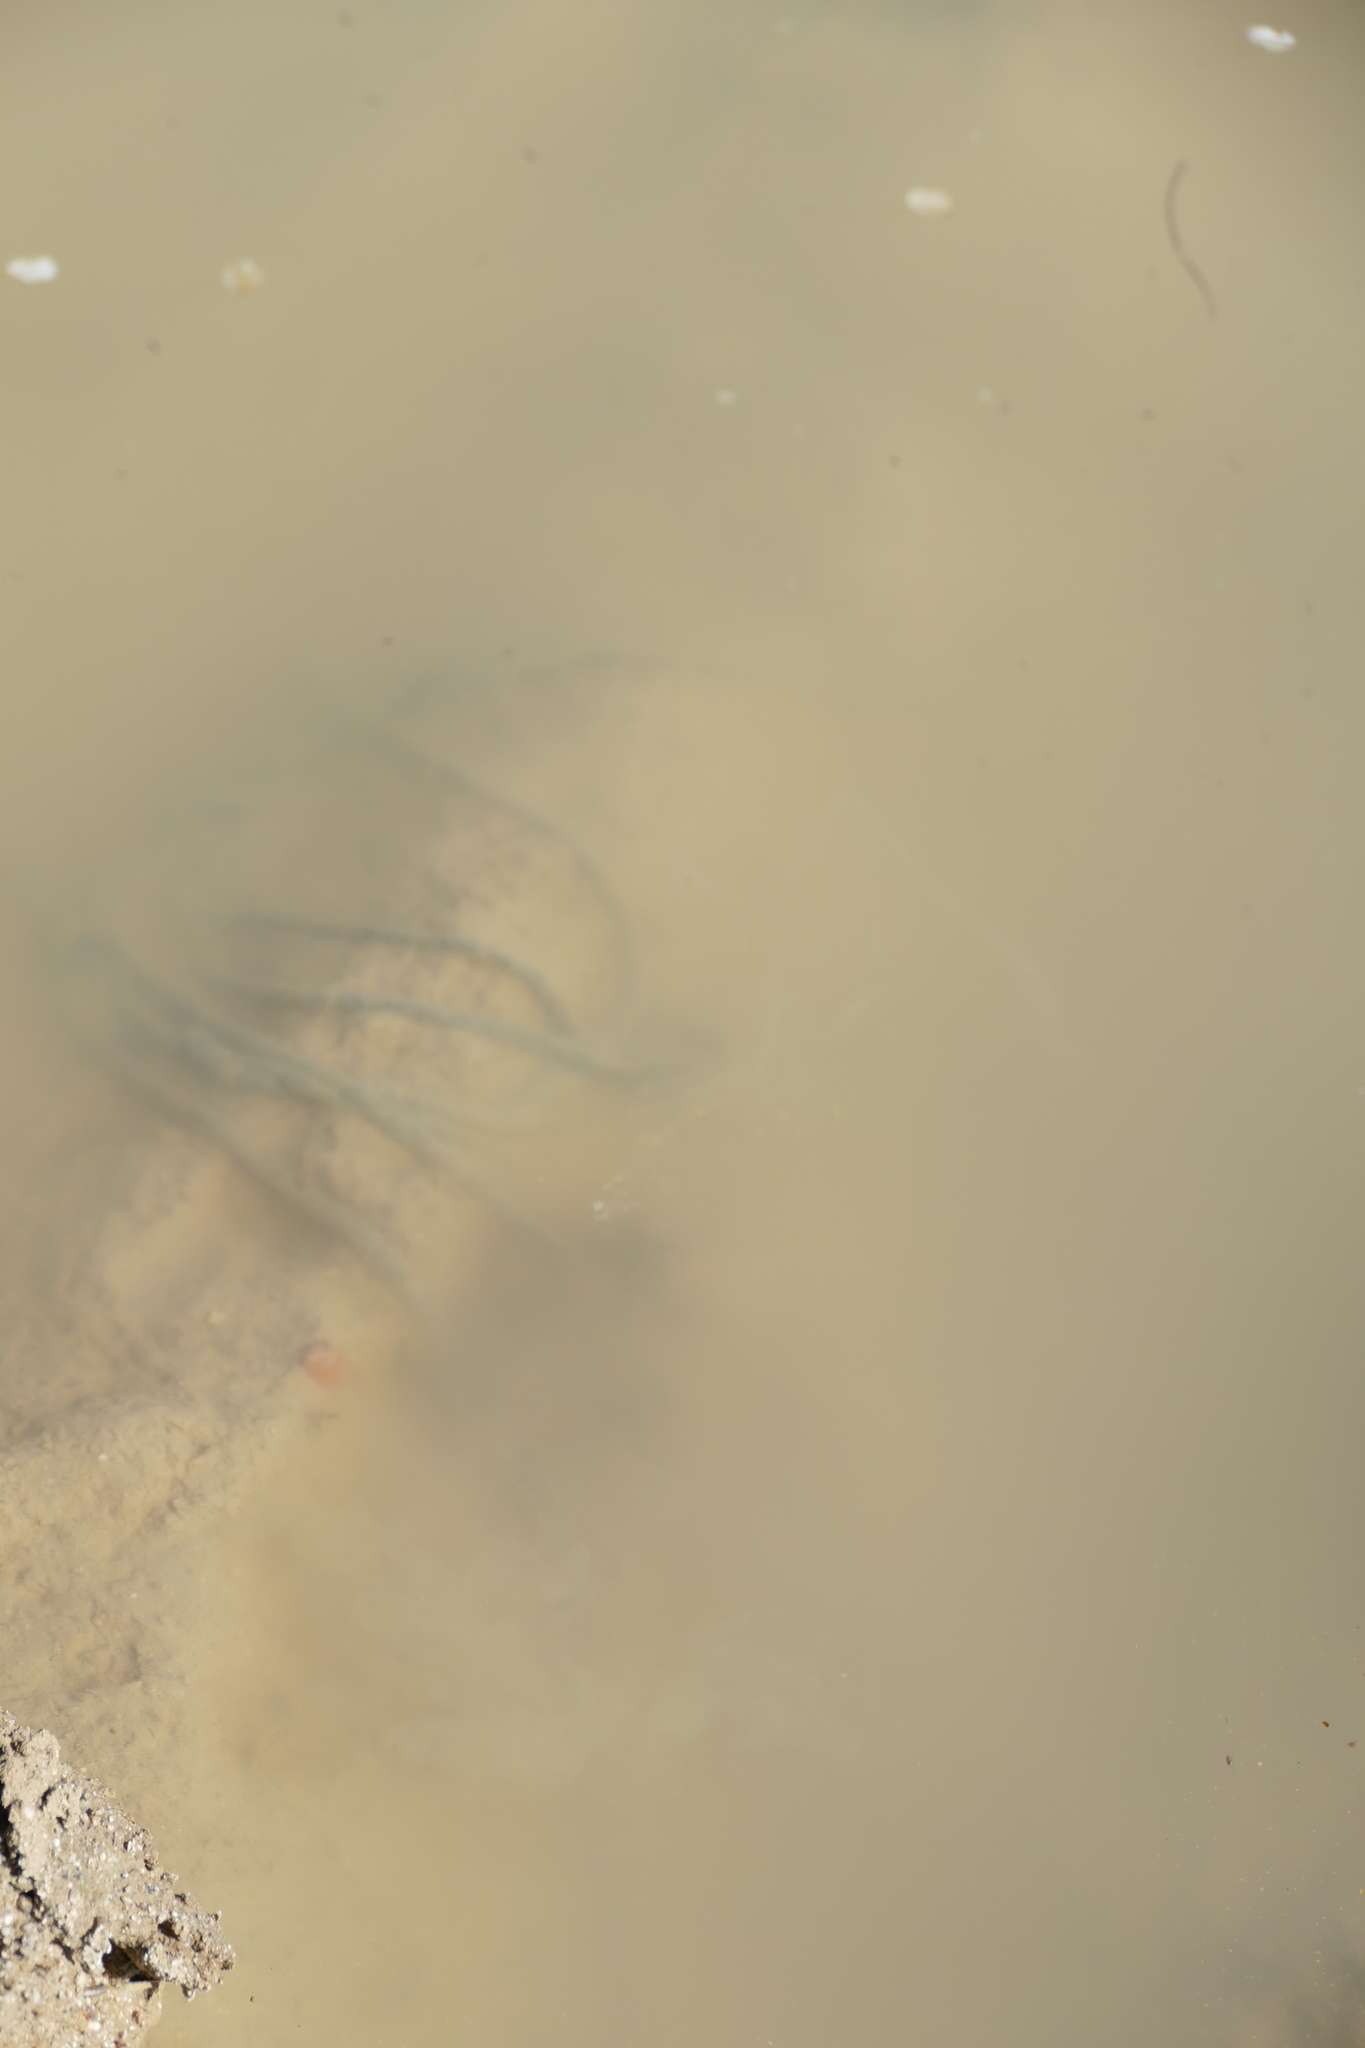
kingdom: Animalia
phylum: Chordata
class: Amphibia
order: Anura
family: Bufonidae
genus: Epidalea
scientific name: Epidalea calamita
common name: Natterjack toad
